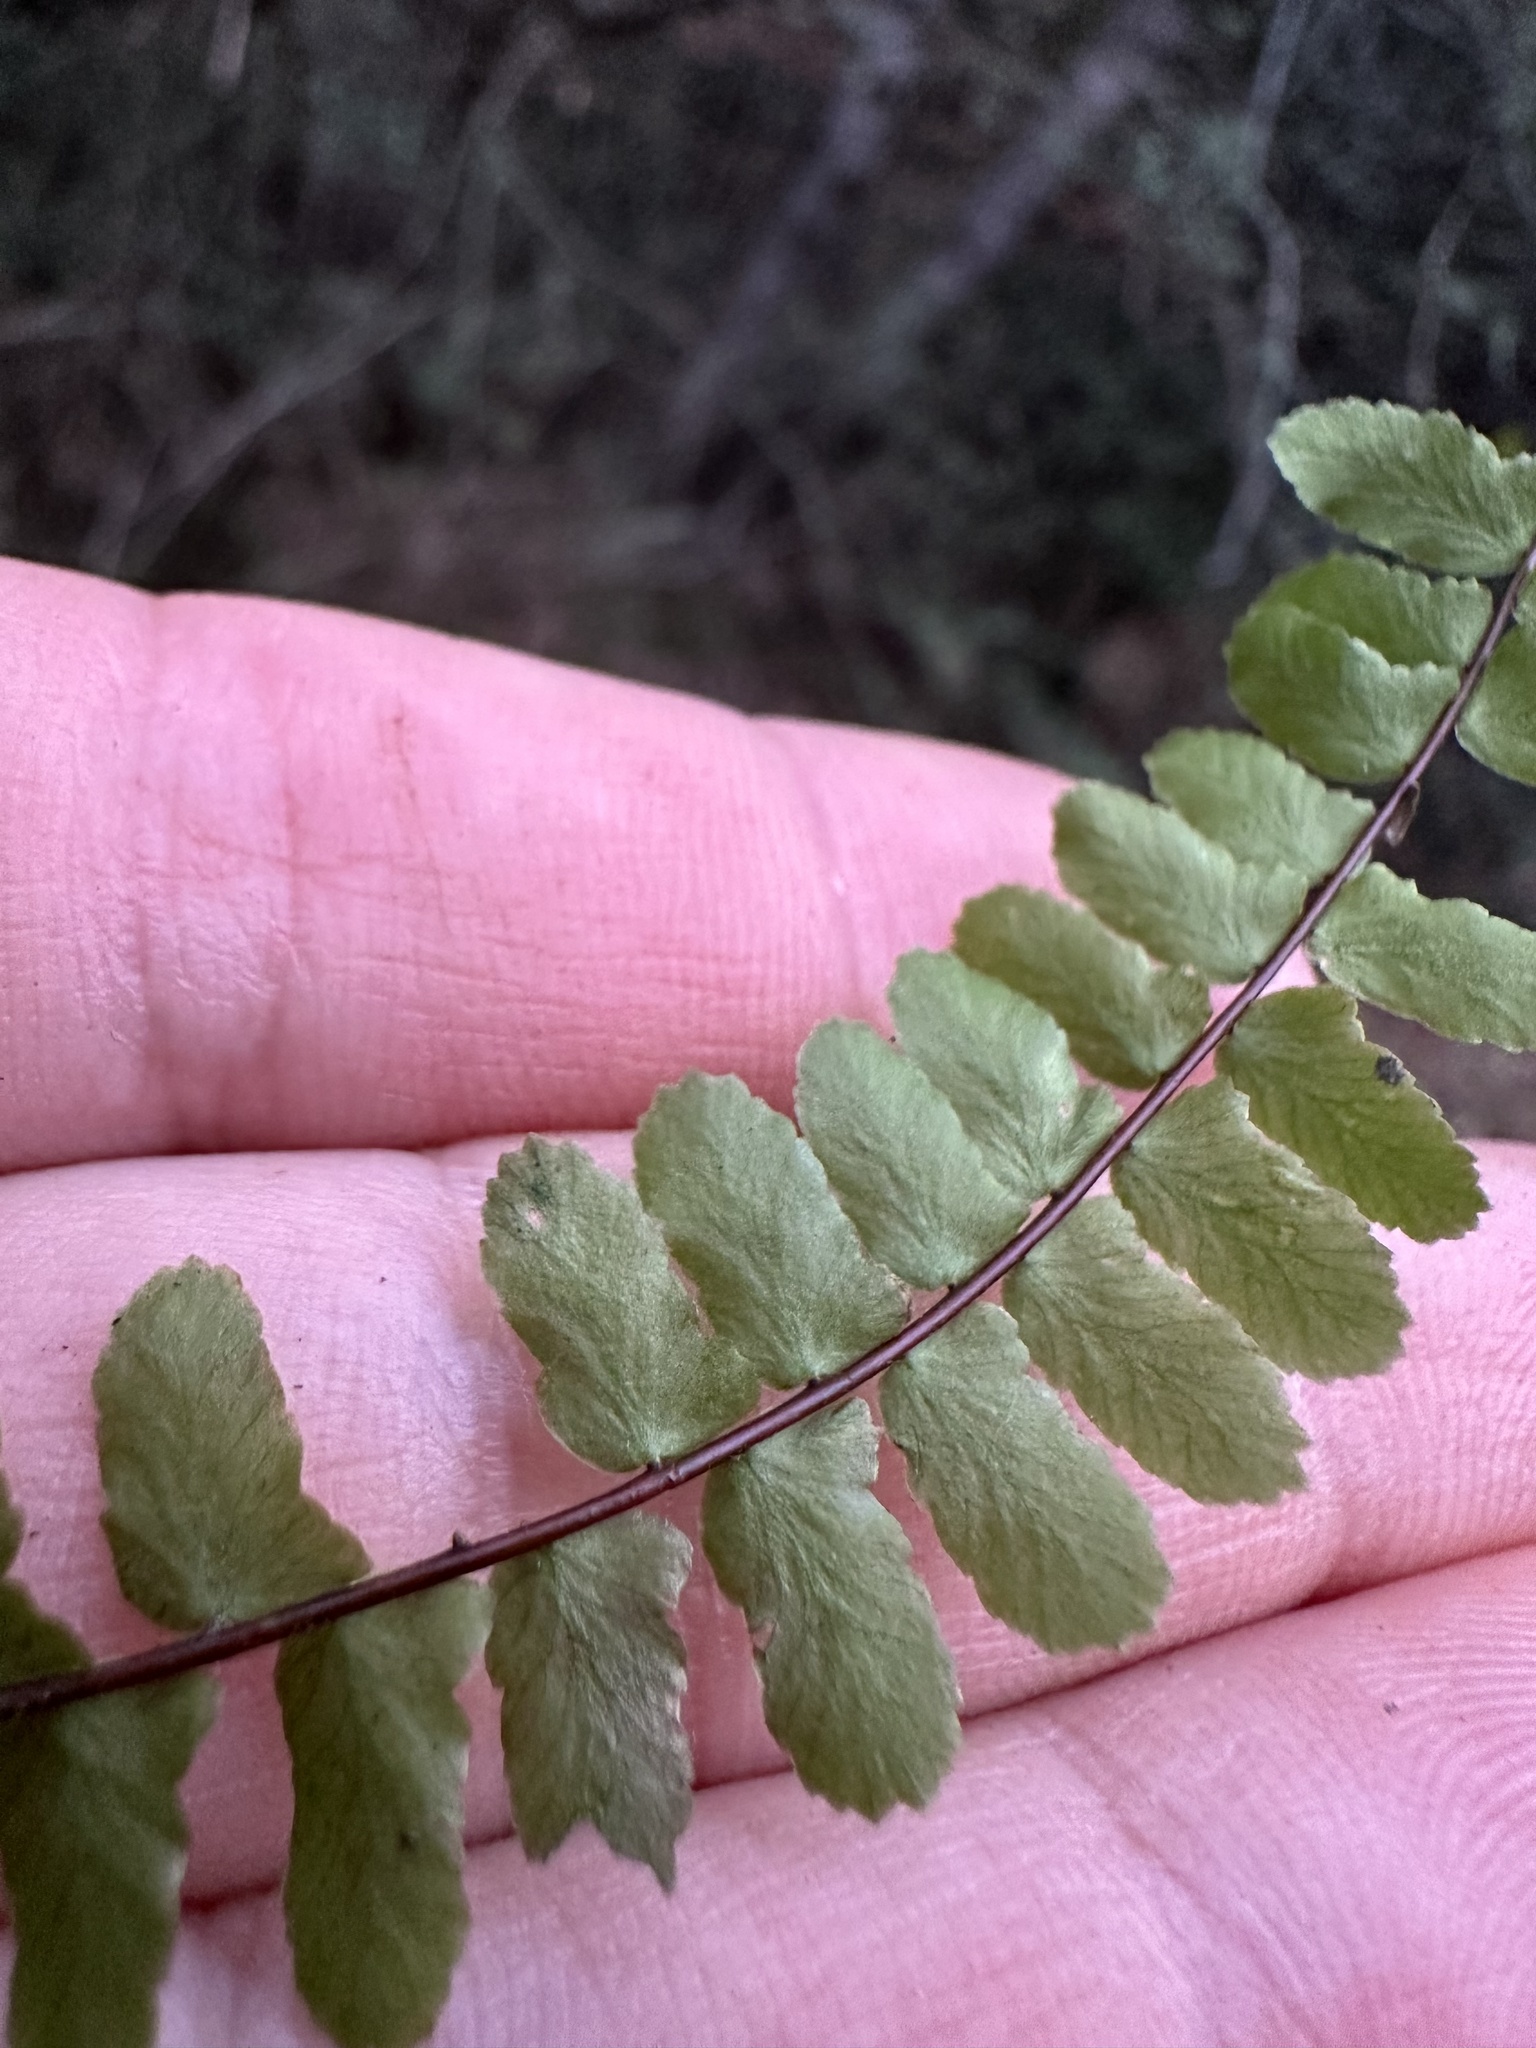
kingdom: Plantae
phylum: Tracheophyta
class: Polypodiopsida
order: Polypodiales
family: Aspleniaceae
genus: Asplenium
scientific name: Asplenium platyneuron
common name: Ebony spleenwort
